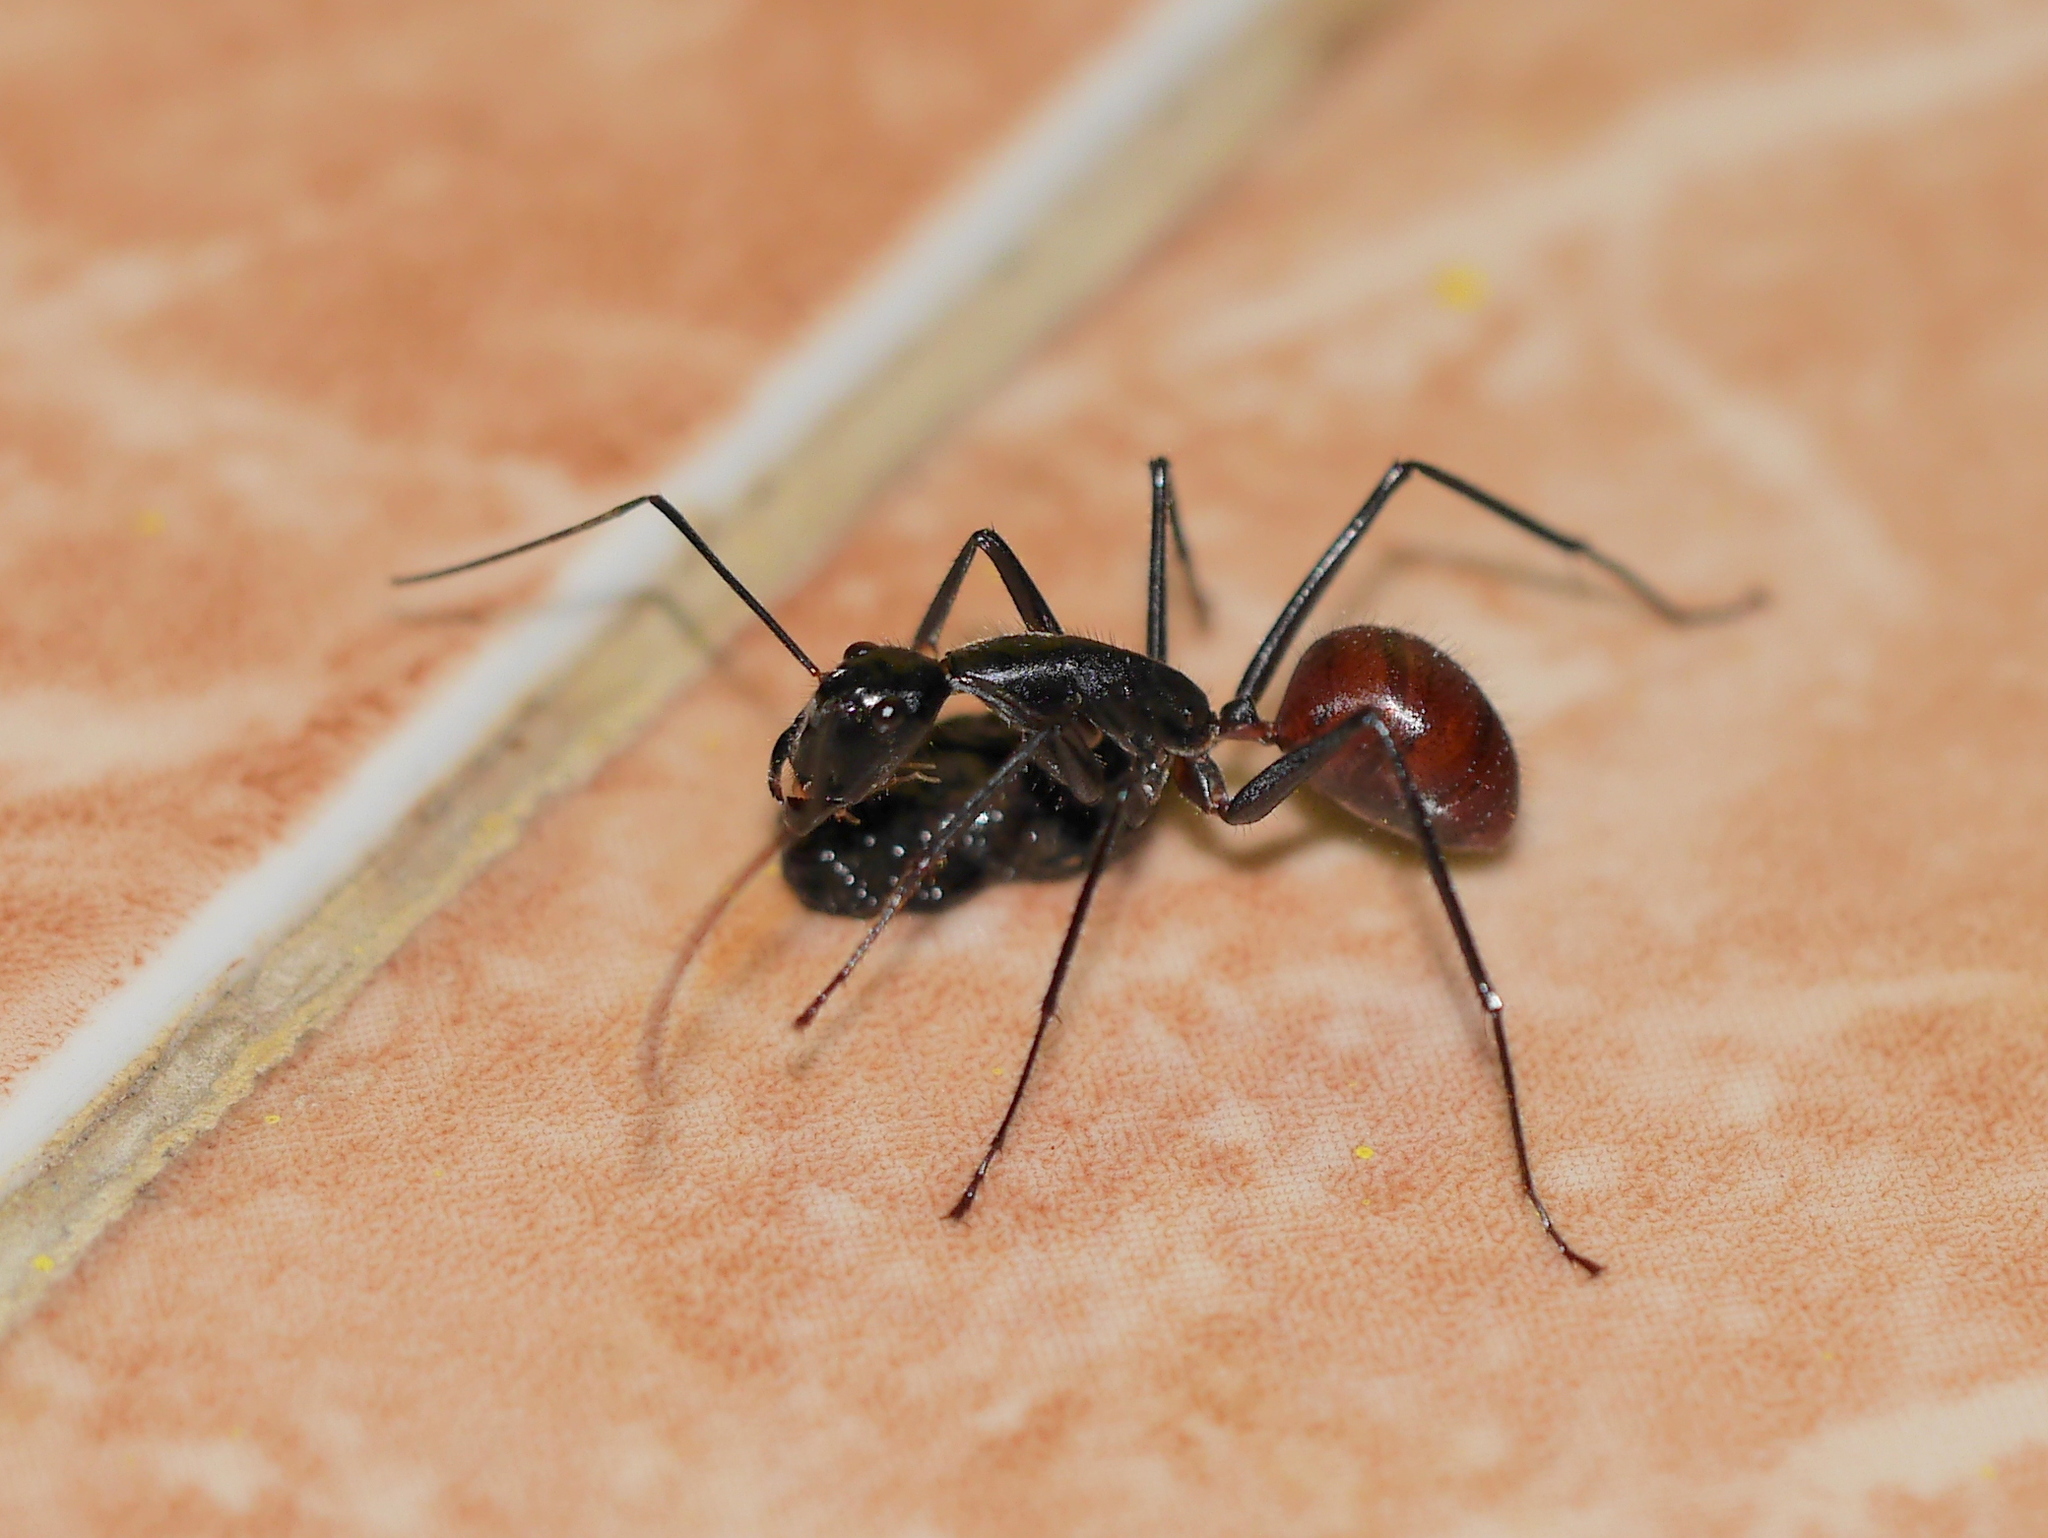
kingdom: Animalia
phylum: Arthropoda
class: Insecta
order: Hymenoptera
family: Formicidae
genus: Dinomyrmex
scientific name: Dinomyrmex
